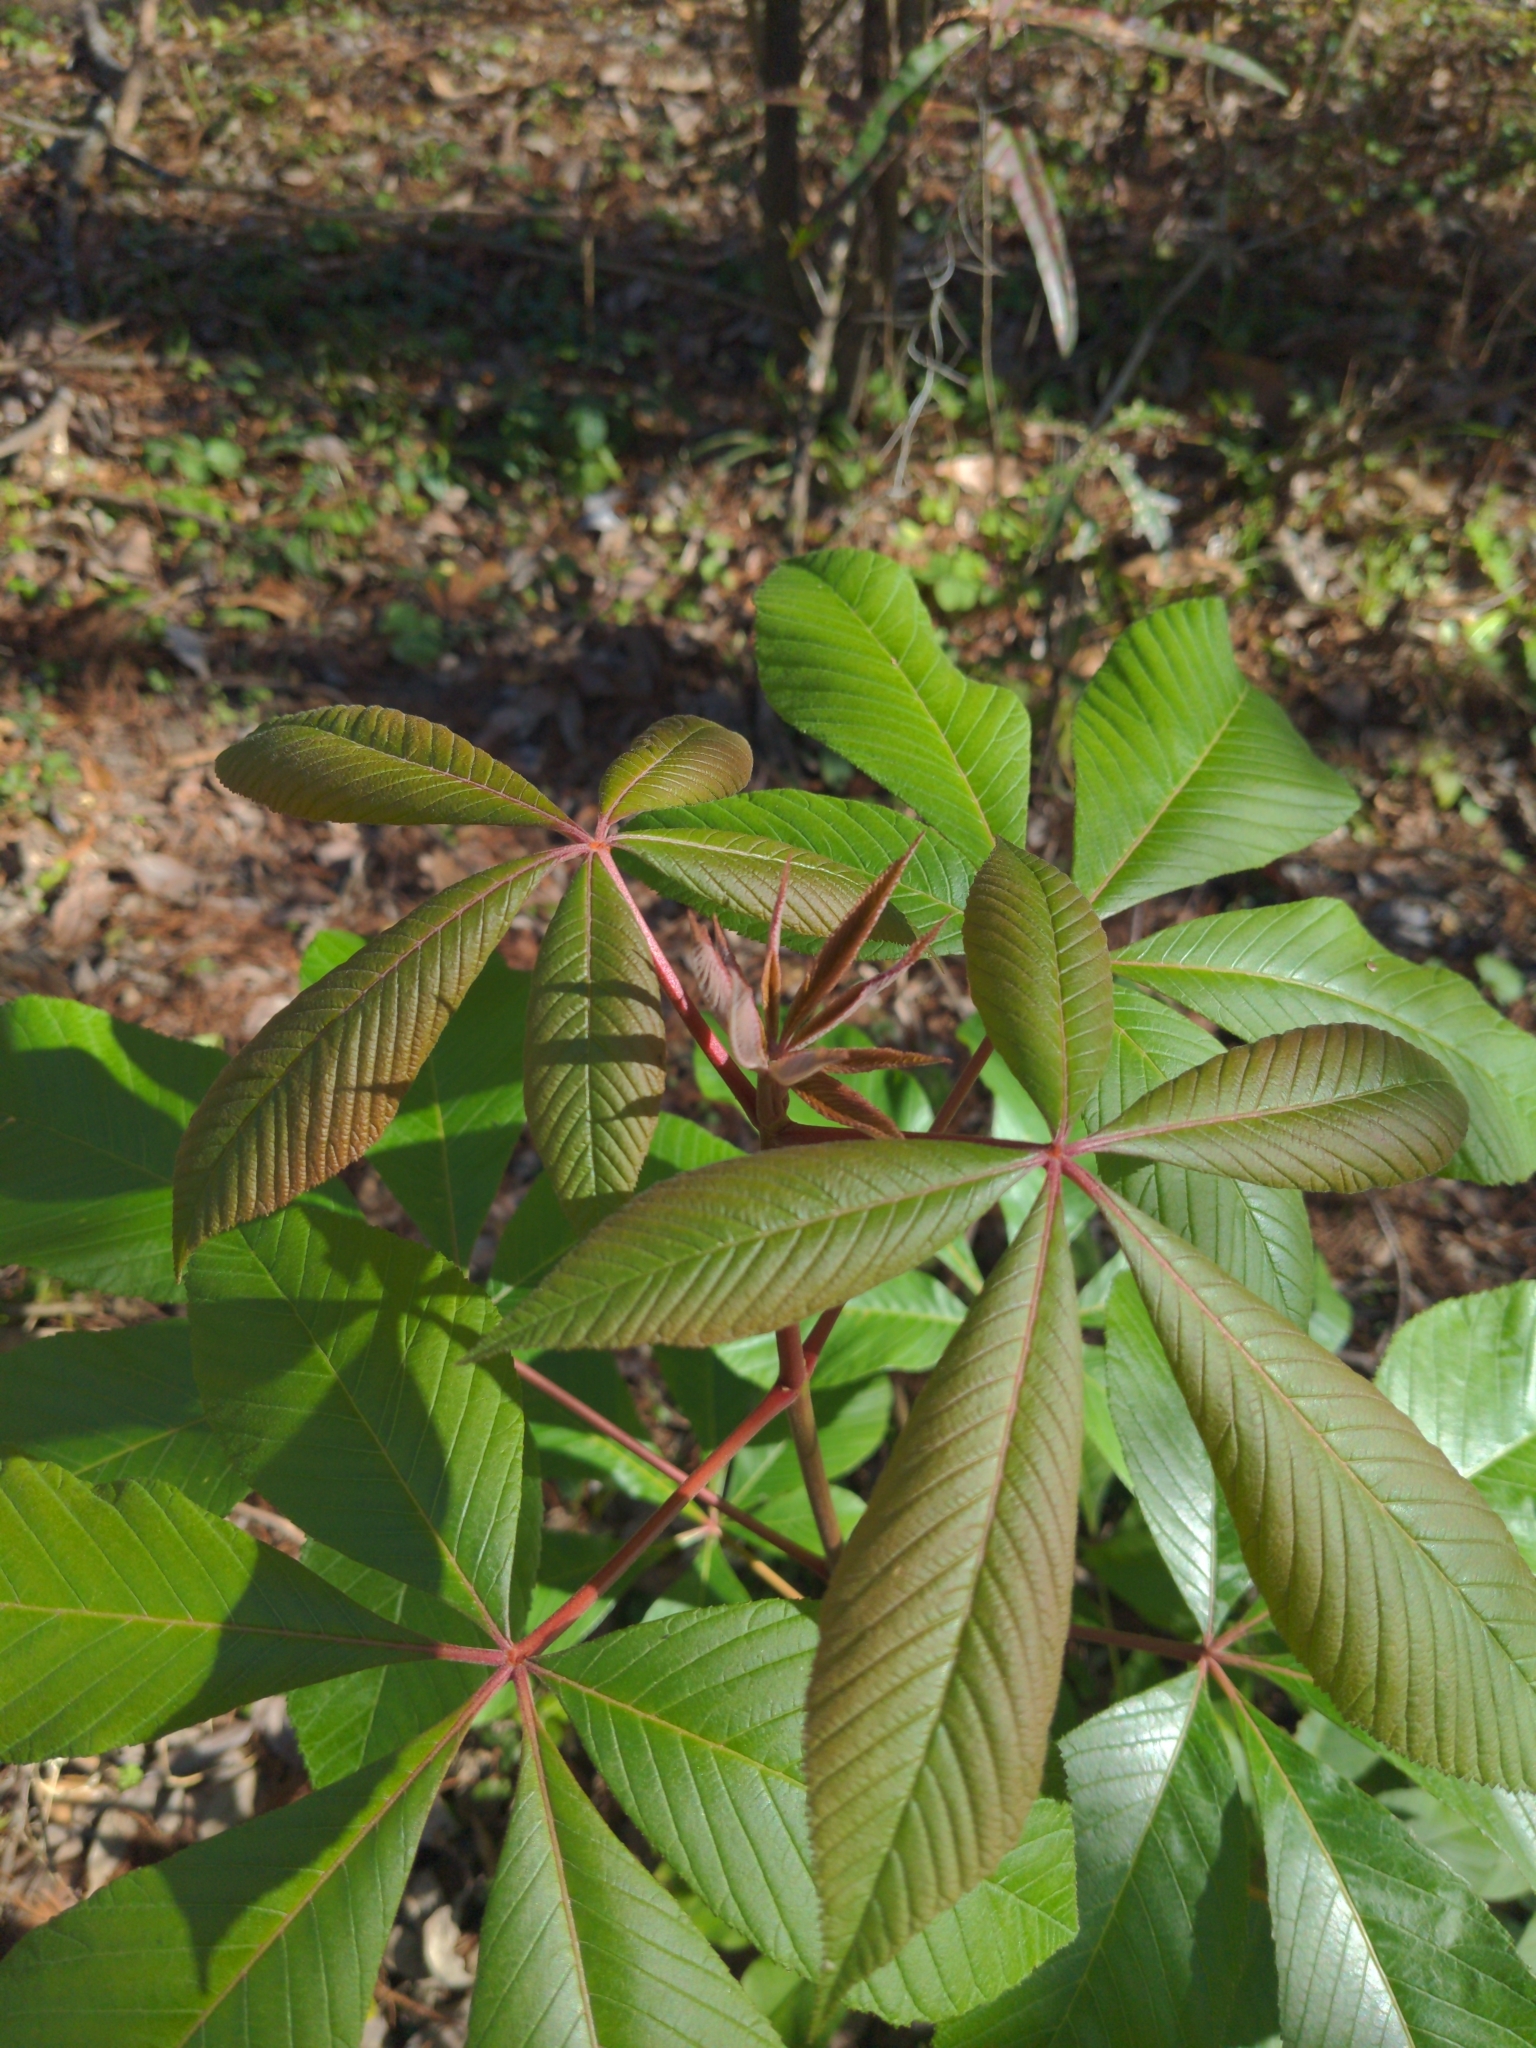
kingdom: Plantae
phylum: Tracheophyta
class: Magnoliopsida
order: Sapindales
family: Sapindaceae
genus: Aesculus
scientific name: Aesculus pavia
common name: Red buckeye
